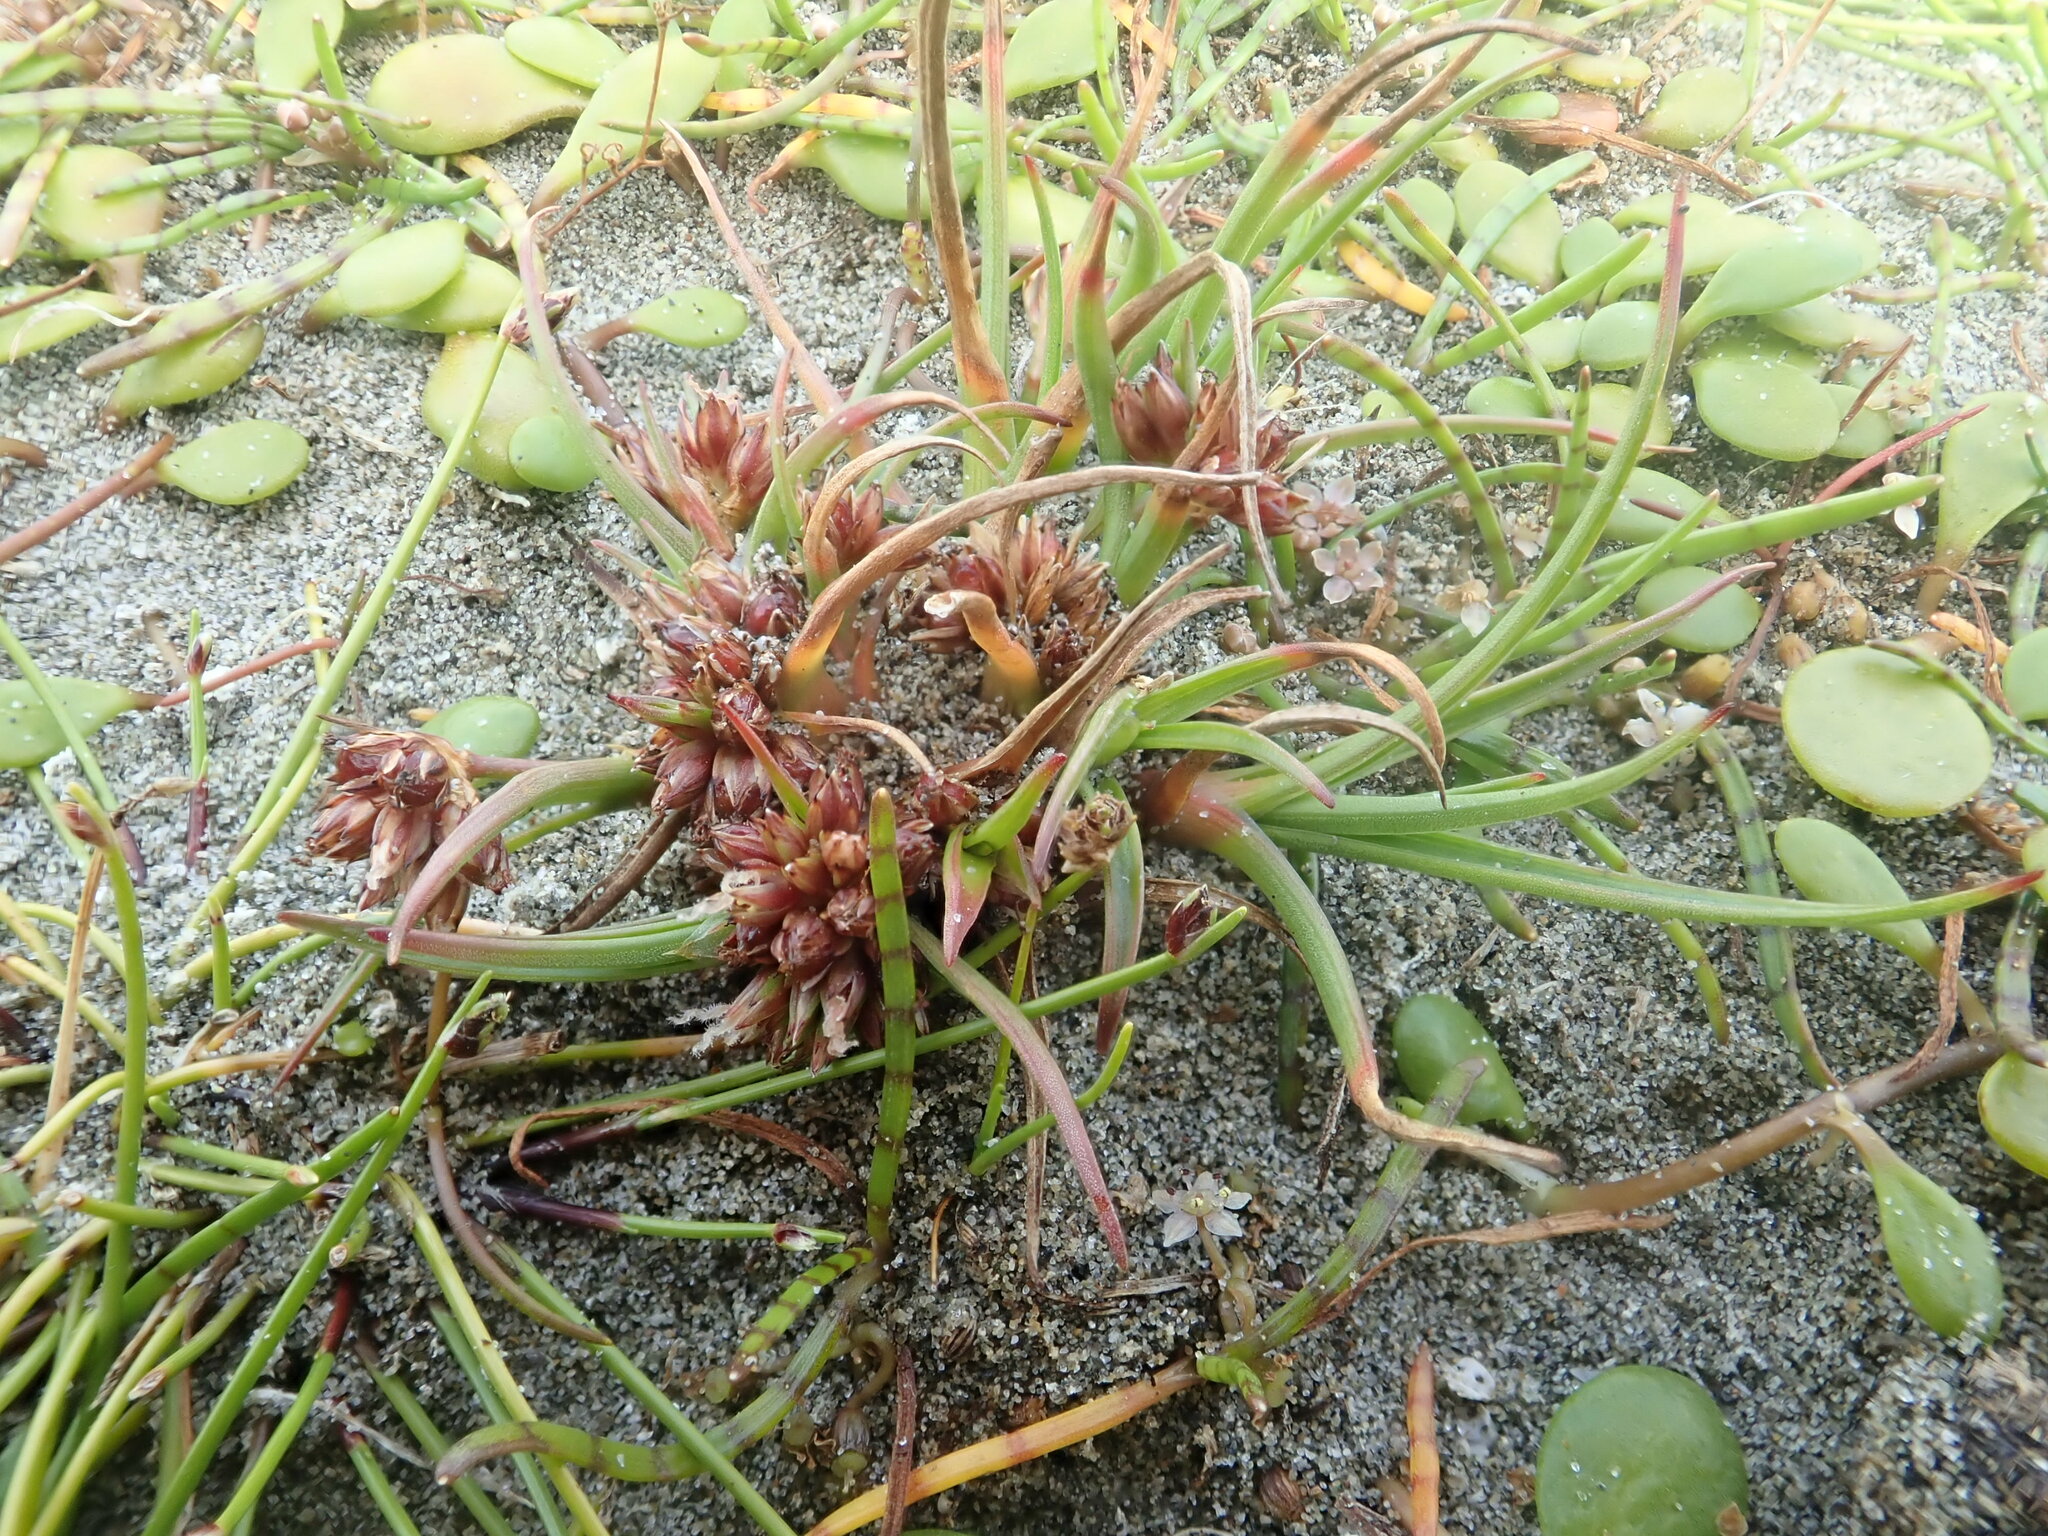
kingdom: Plantae
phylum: Tracheophyta
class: Liliopsida
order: Poales
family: Juncaceae
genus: Juncus
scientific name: Juncus caespiticius
